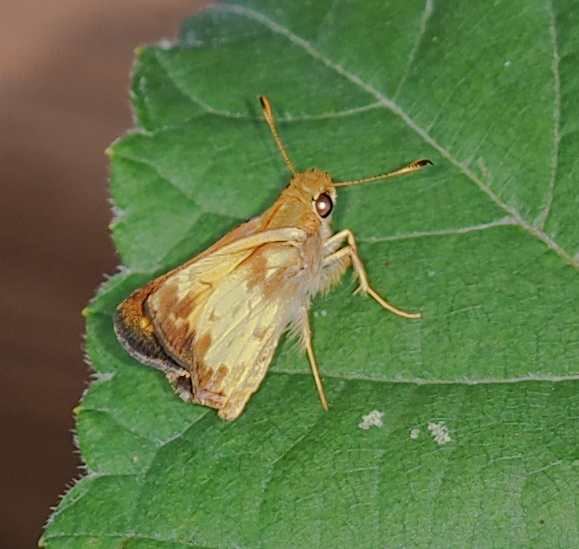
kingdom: Animalia
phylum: Arthropoda
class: Insecta
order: Lepidoptera
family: Hesperiidae
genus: Lon
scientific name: Lon zabulon
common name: Zabulon skipper
